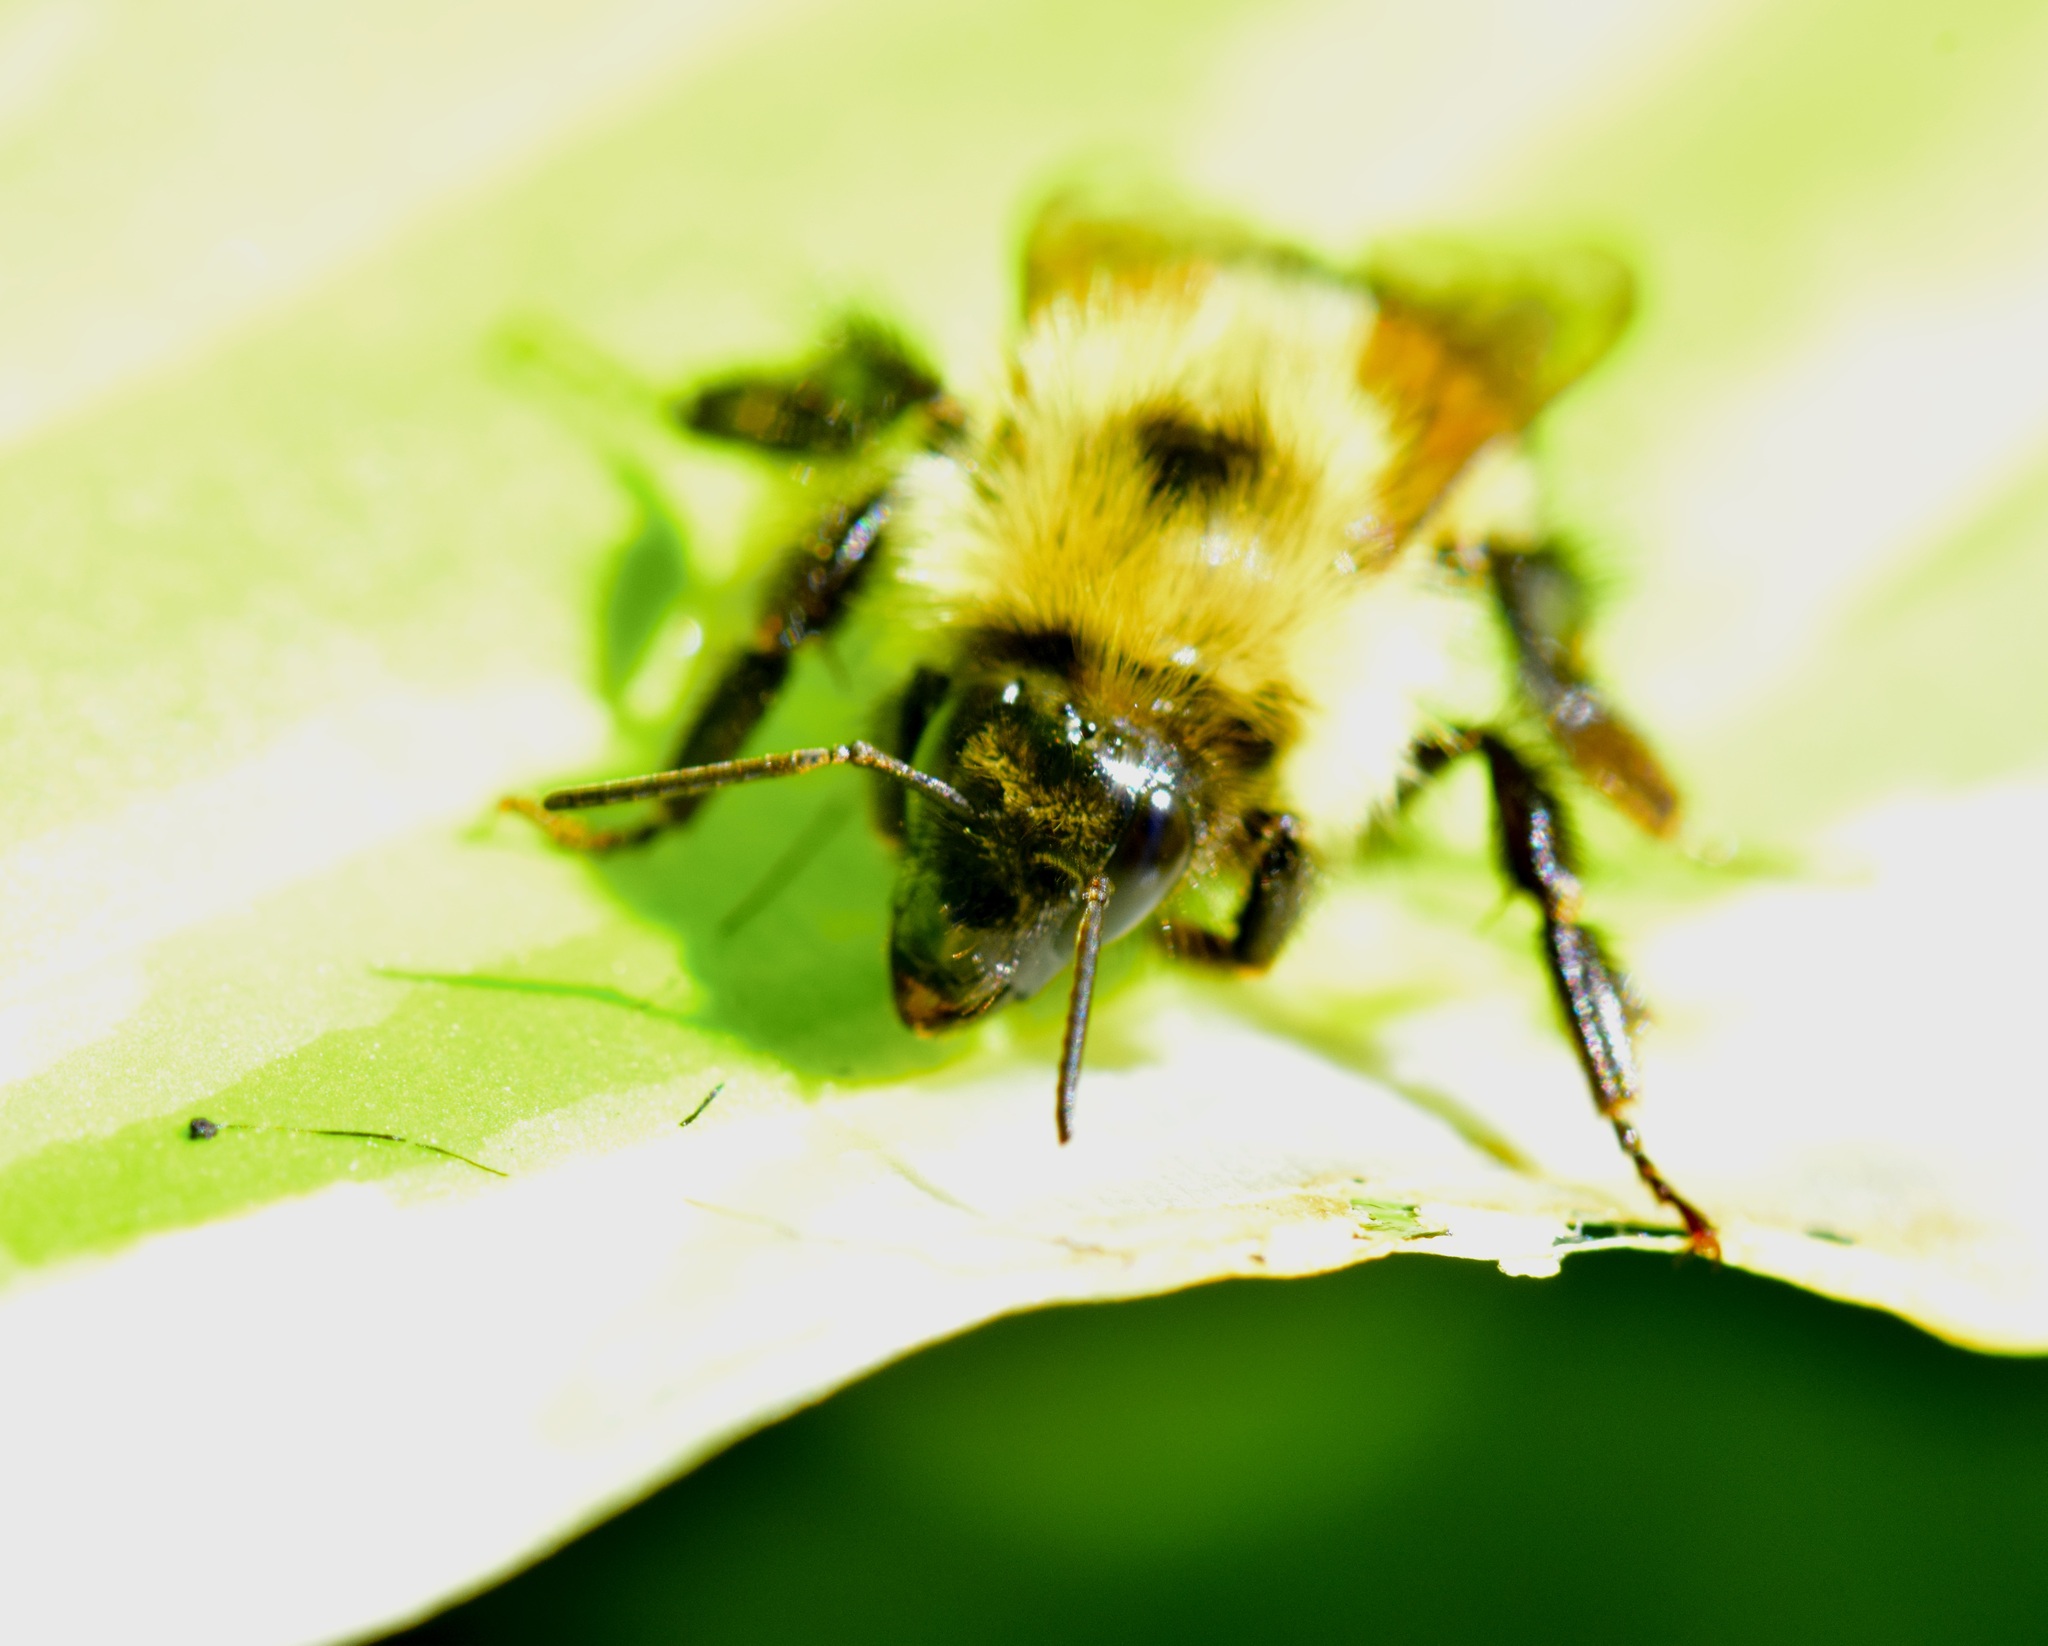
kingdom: Animalia
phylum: Arthropoda
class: Insecta
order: Hymenoptera
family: Apidae
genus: Bombus
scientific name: Bombus vagans
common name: Half-black bumble bee
